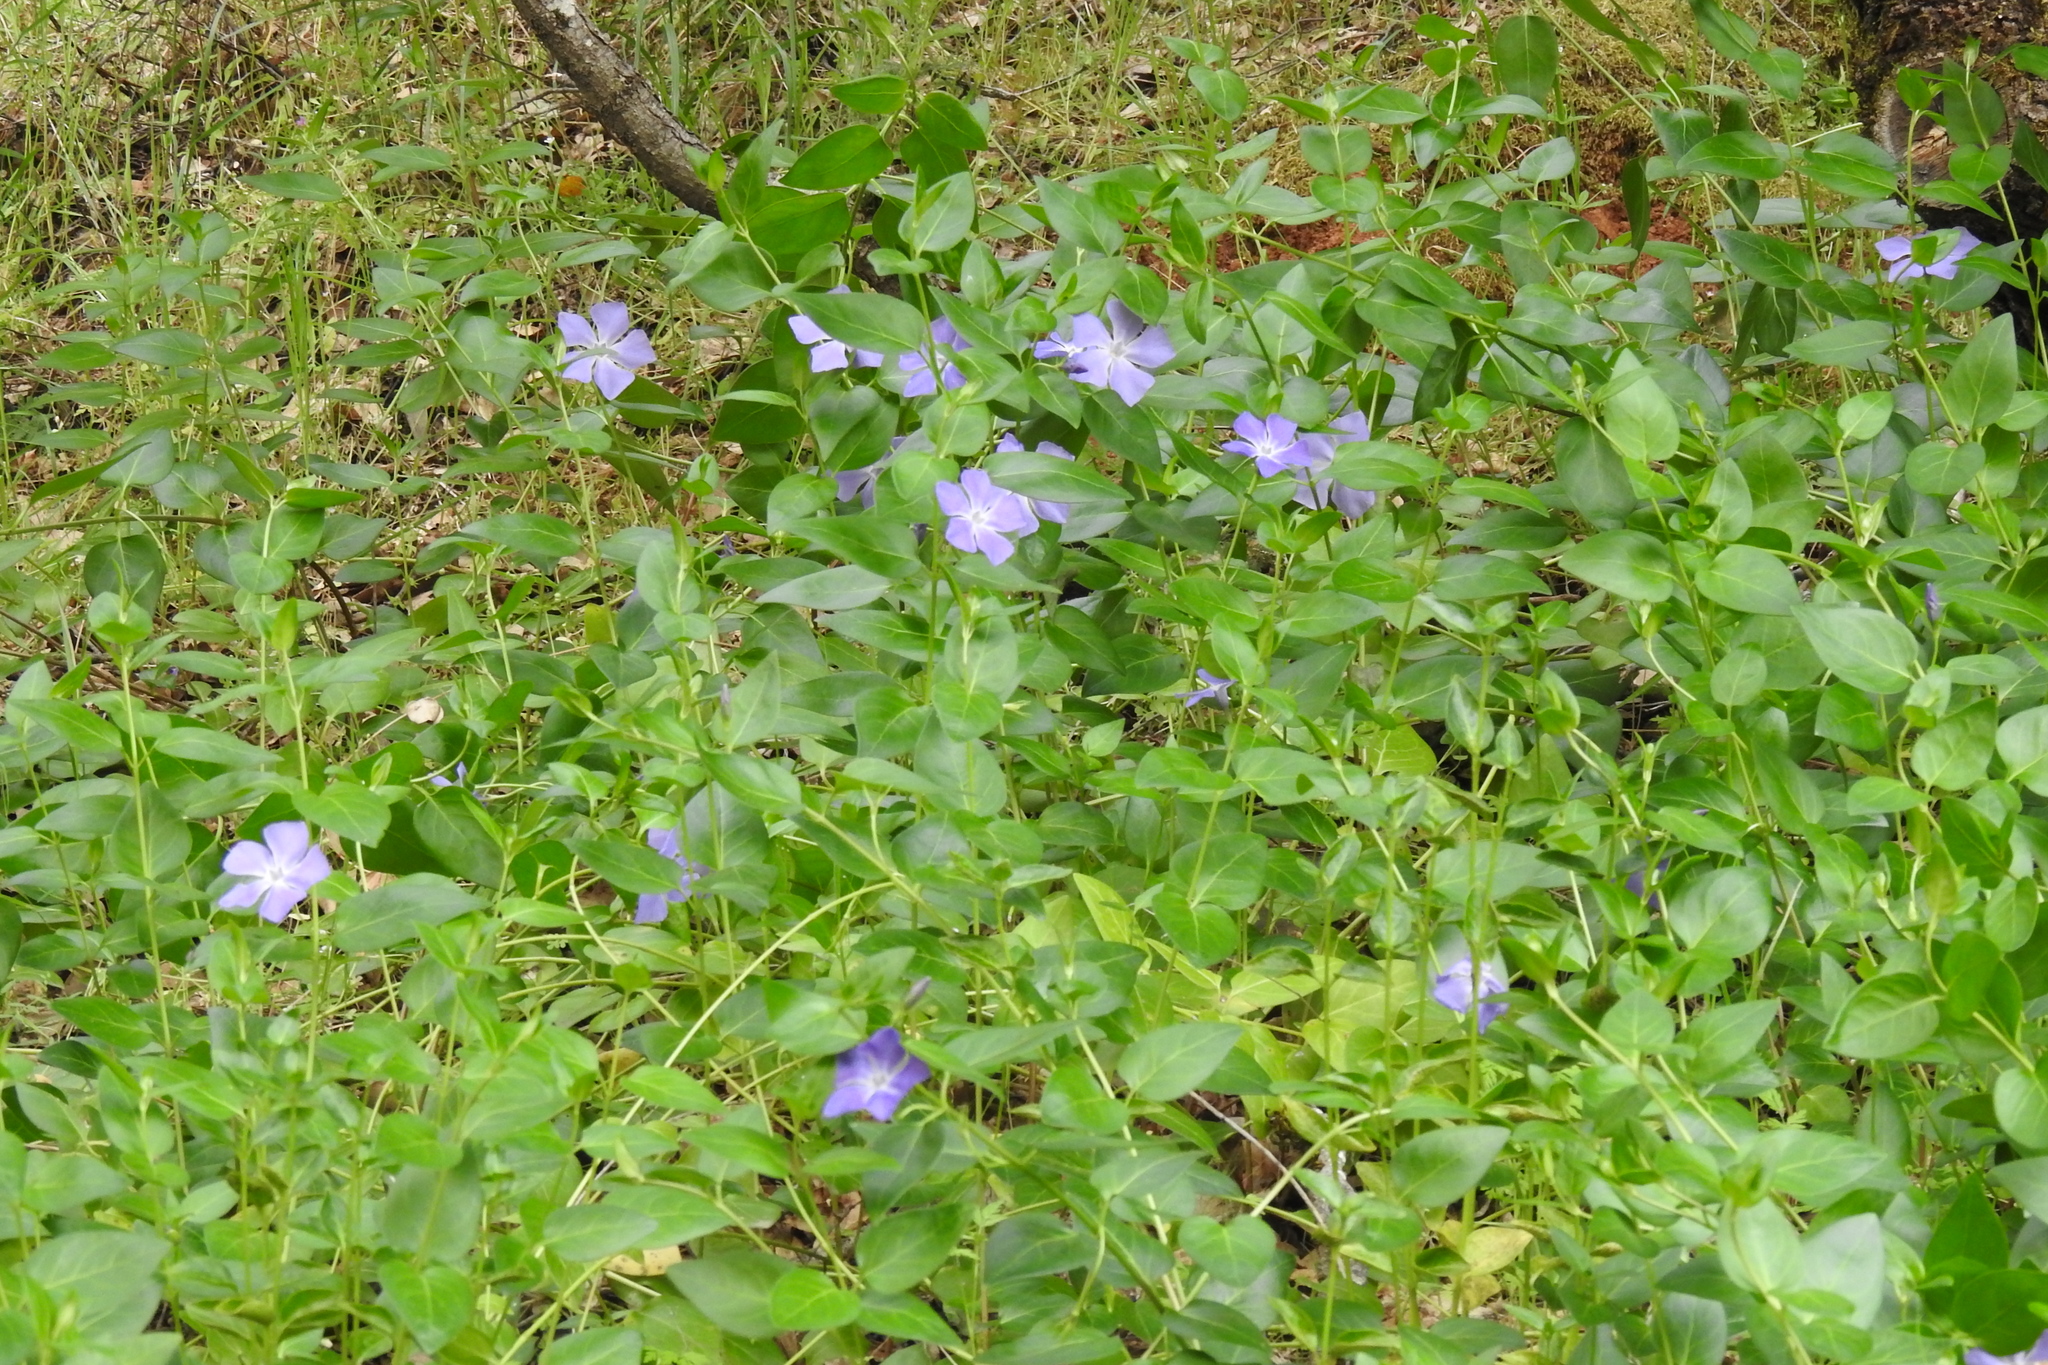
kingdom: Plantae
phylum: Tracheophyta
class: Magnoliopsida
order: Gentianales
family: Apocynaceae
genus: Vinca
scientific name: Vinca major
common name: Greater periwinkle
